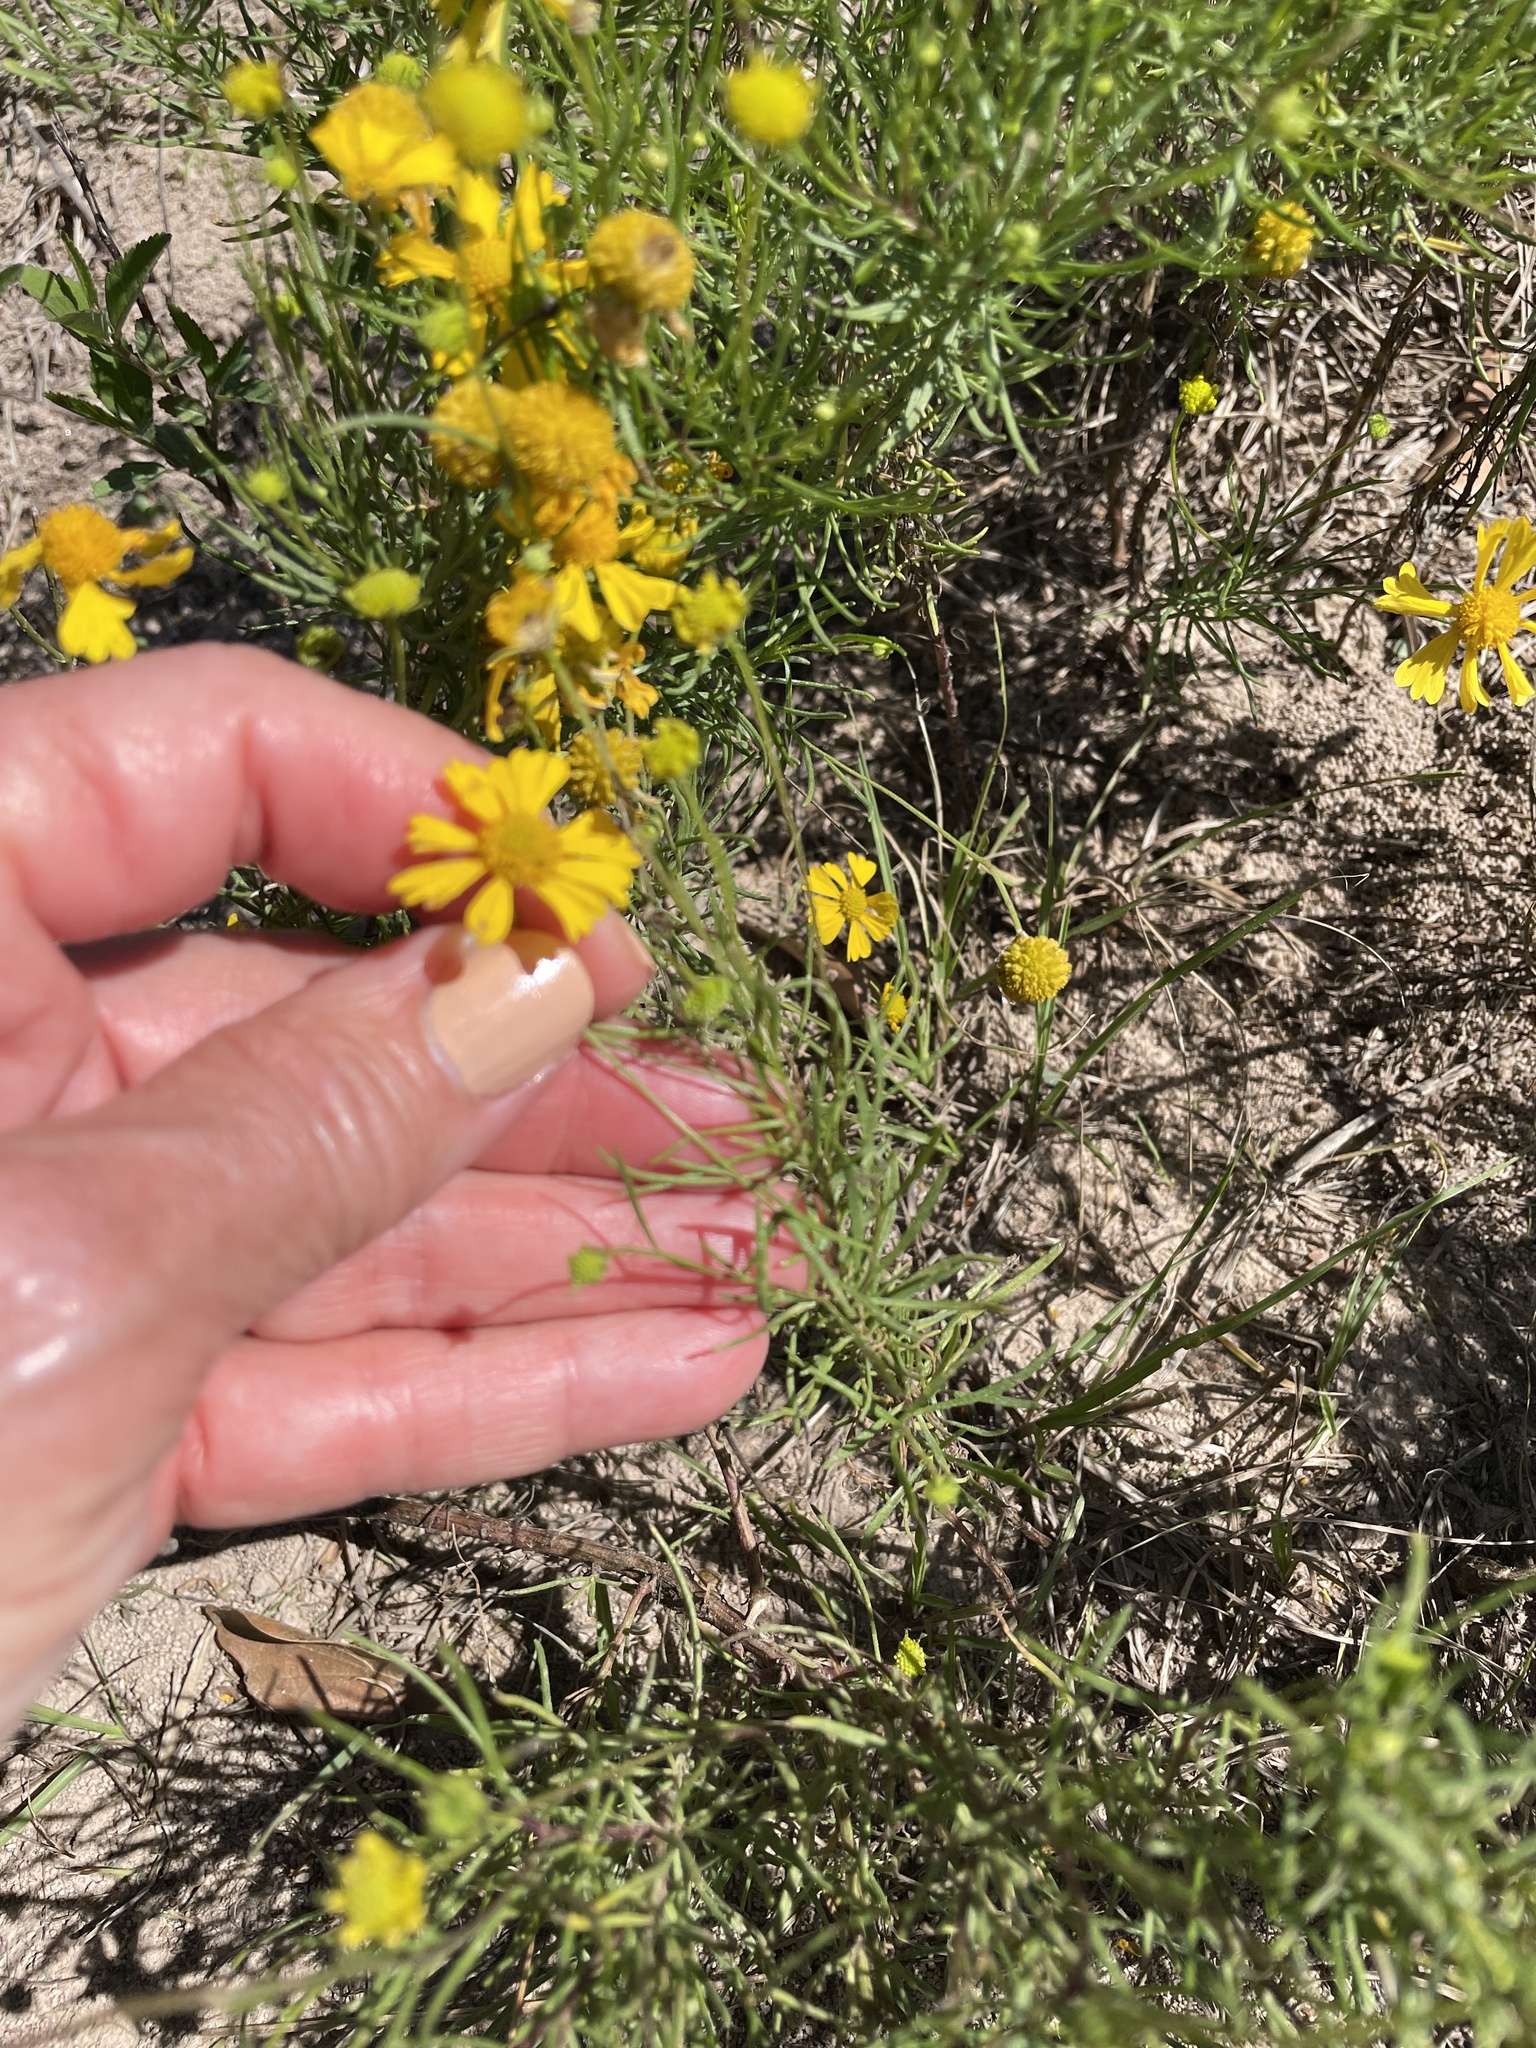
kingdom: Plantae
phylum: Tracheophyta
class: Magnoliopsida
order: Asterales
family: Asteraceae
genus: Helenium
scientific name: Helenium amarum
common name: Bitter sneezeweed
